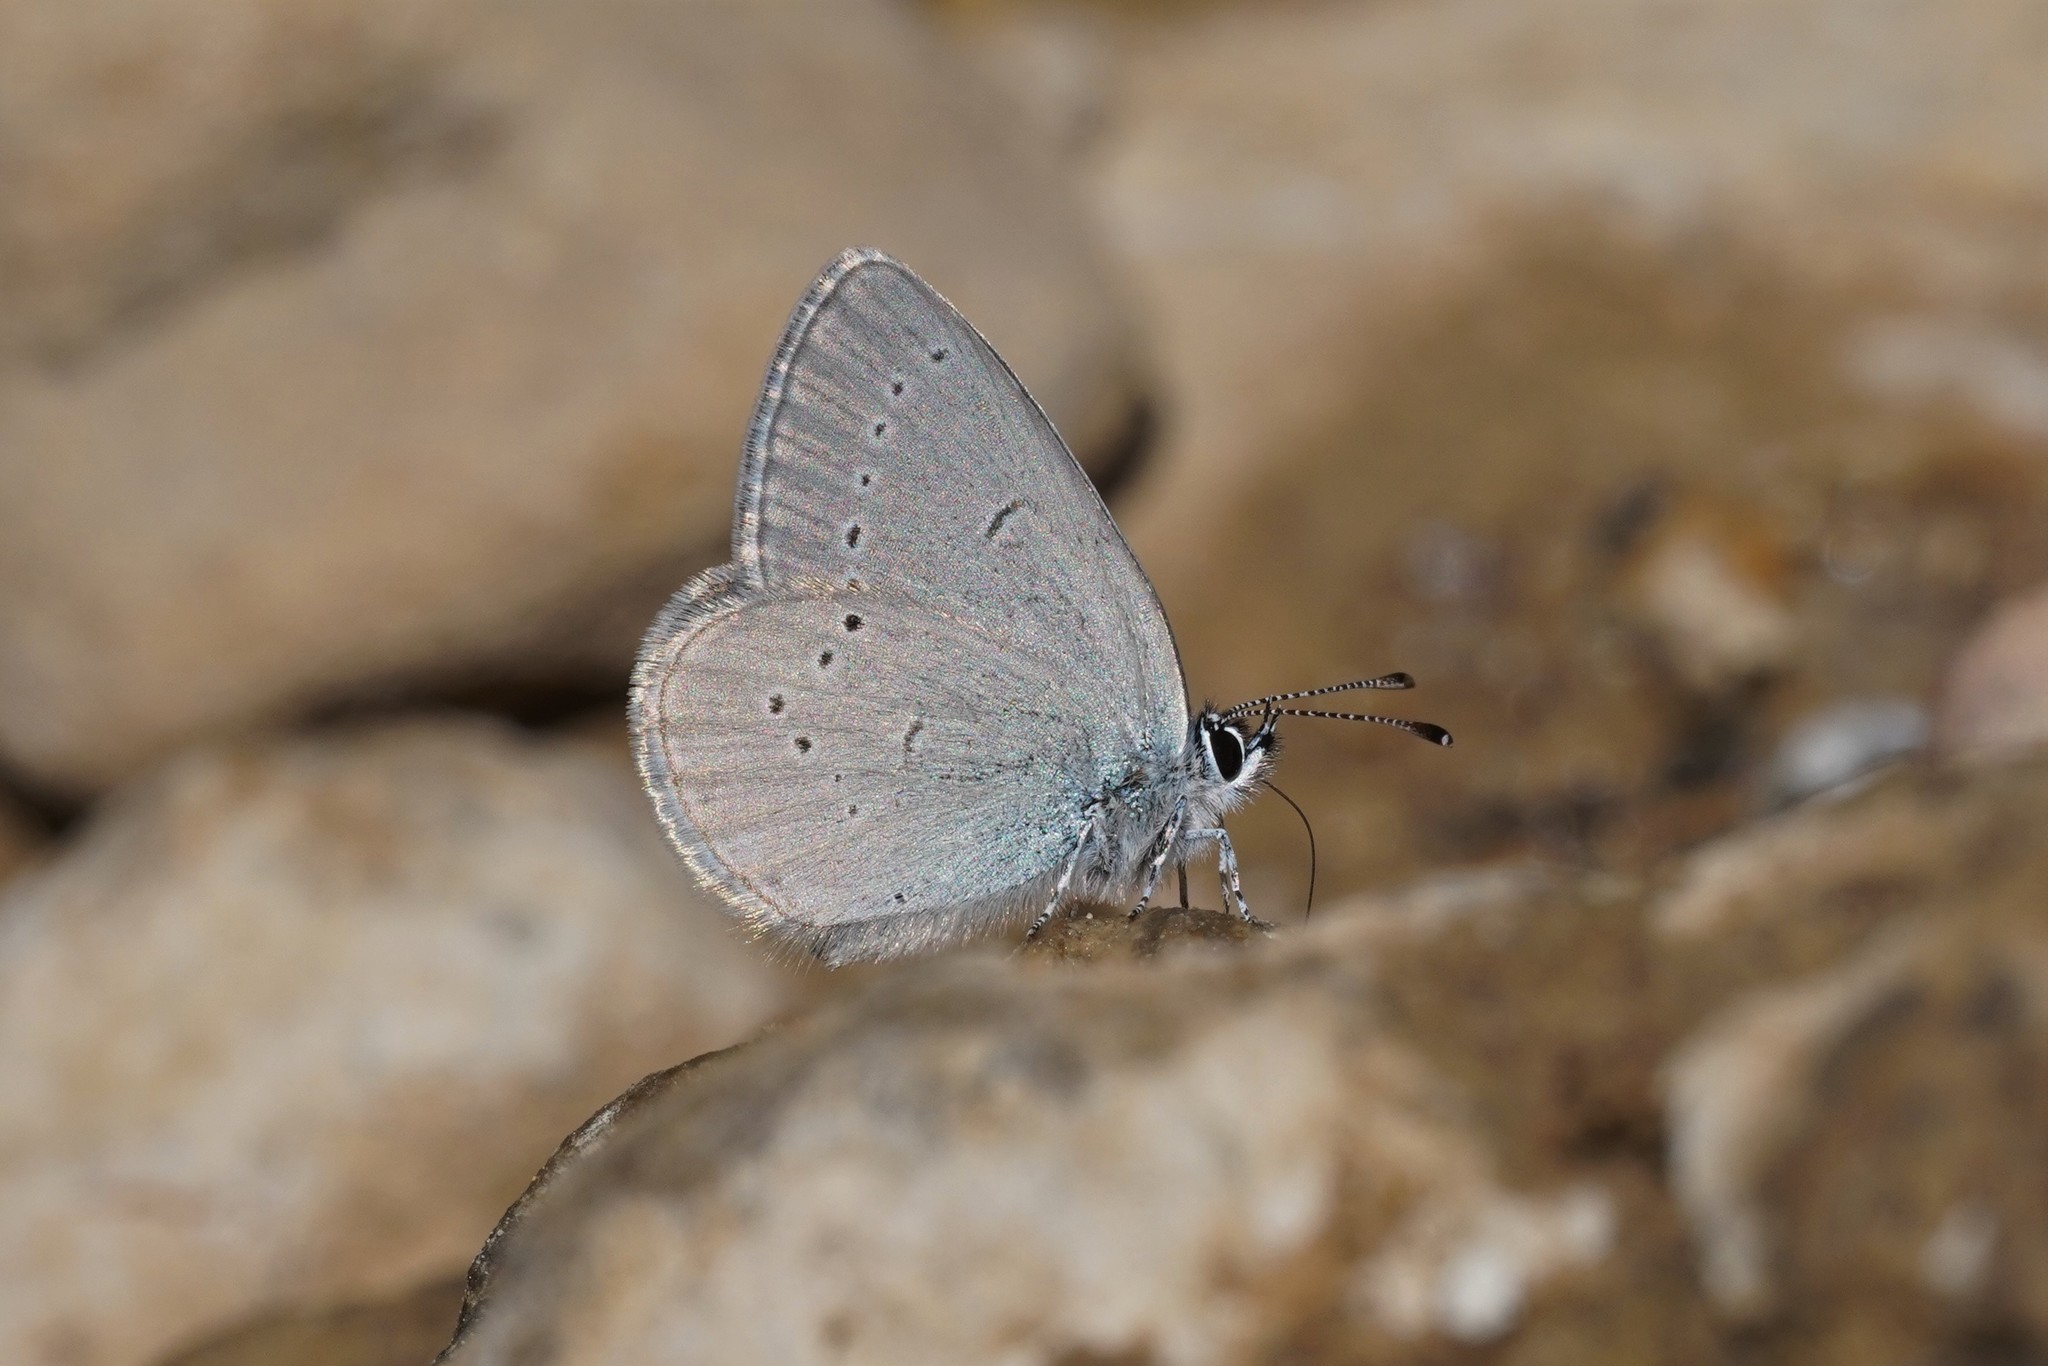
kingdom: Animalia
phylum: Arthropoda
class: Insecta
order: Lepidoptera
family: Lycaenidae
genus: Cupido
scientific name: Cupido lorquinii
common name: Lorquin’s blue
